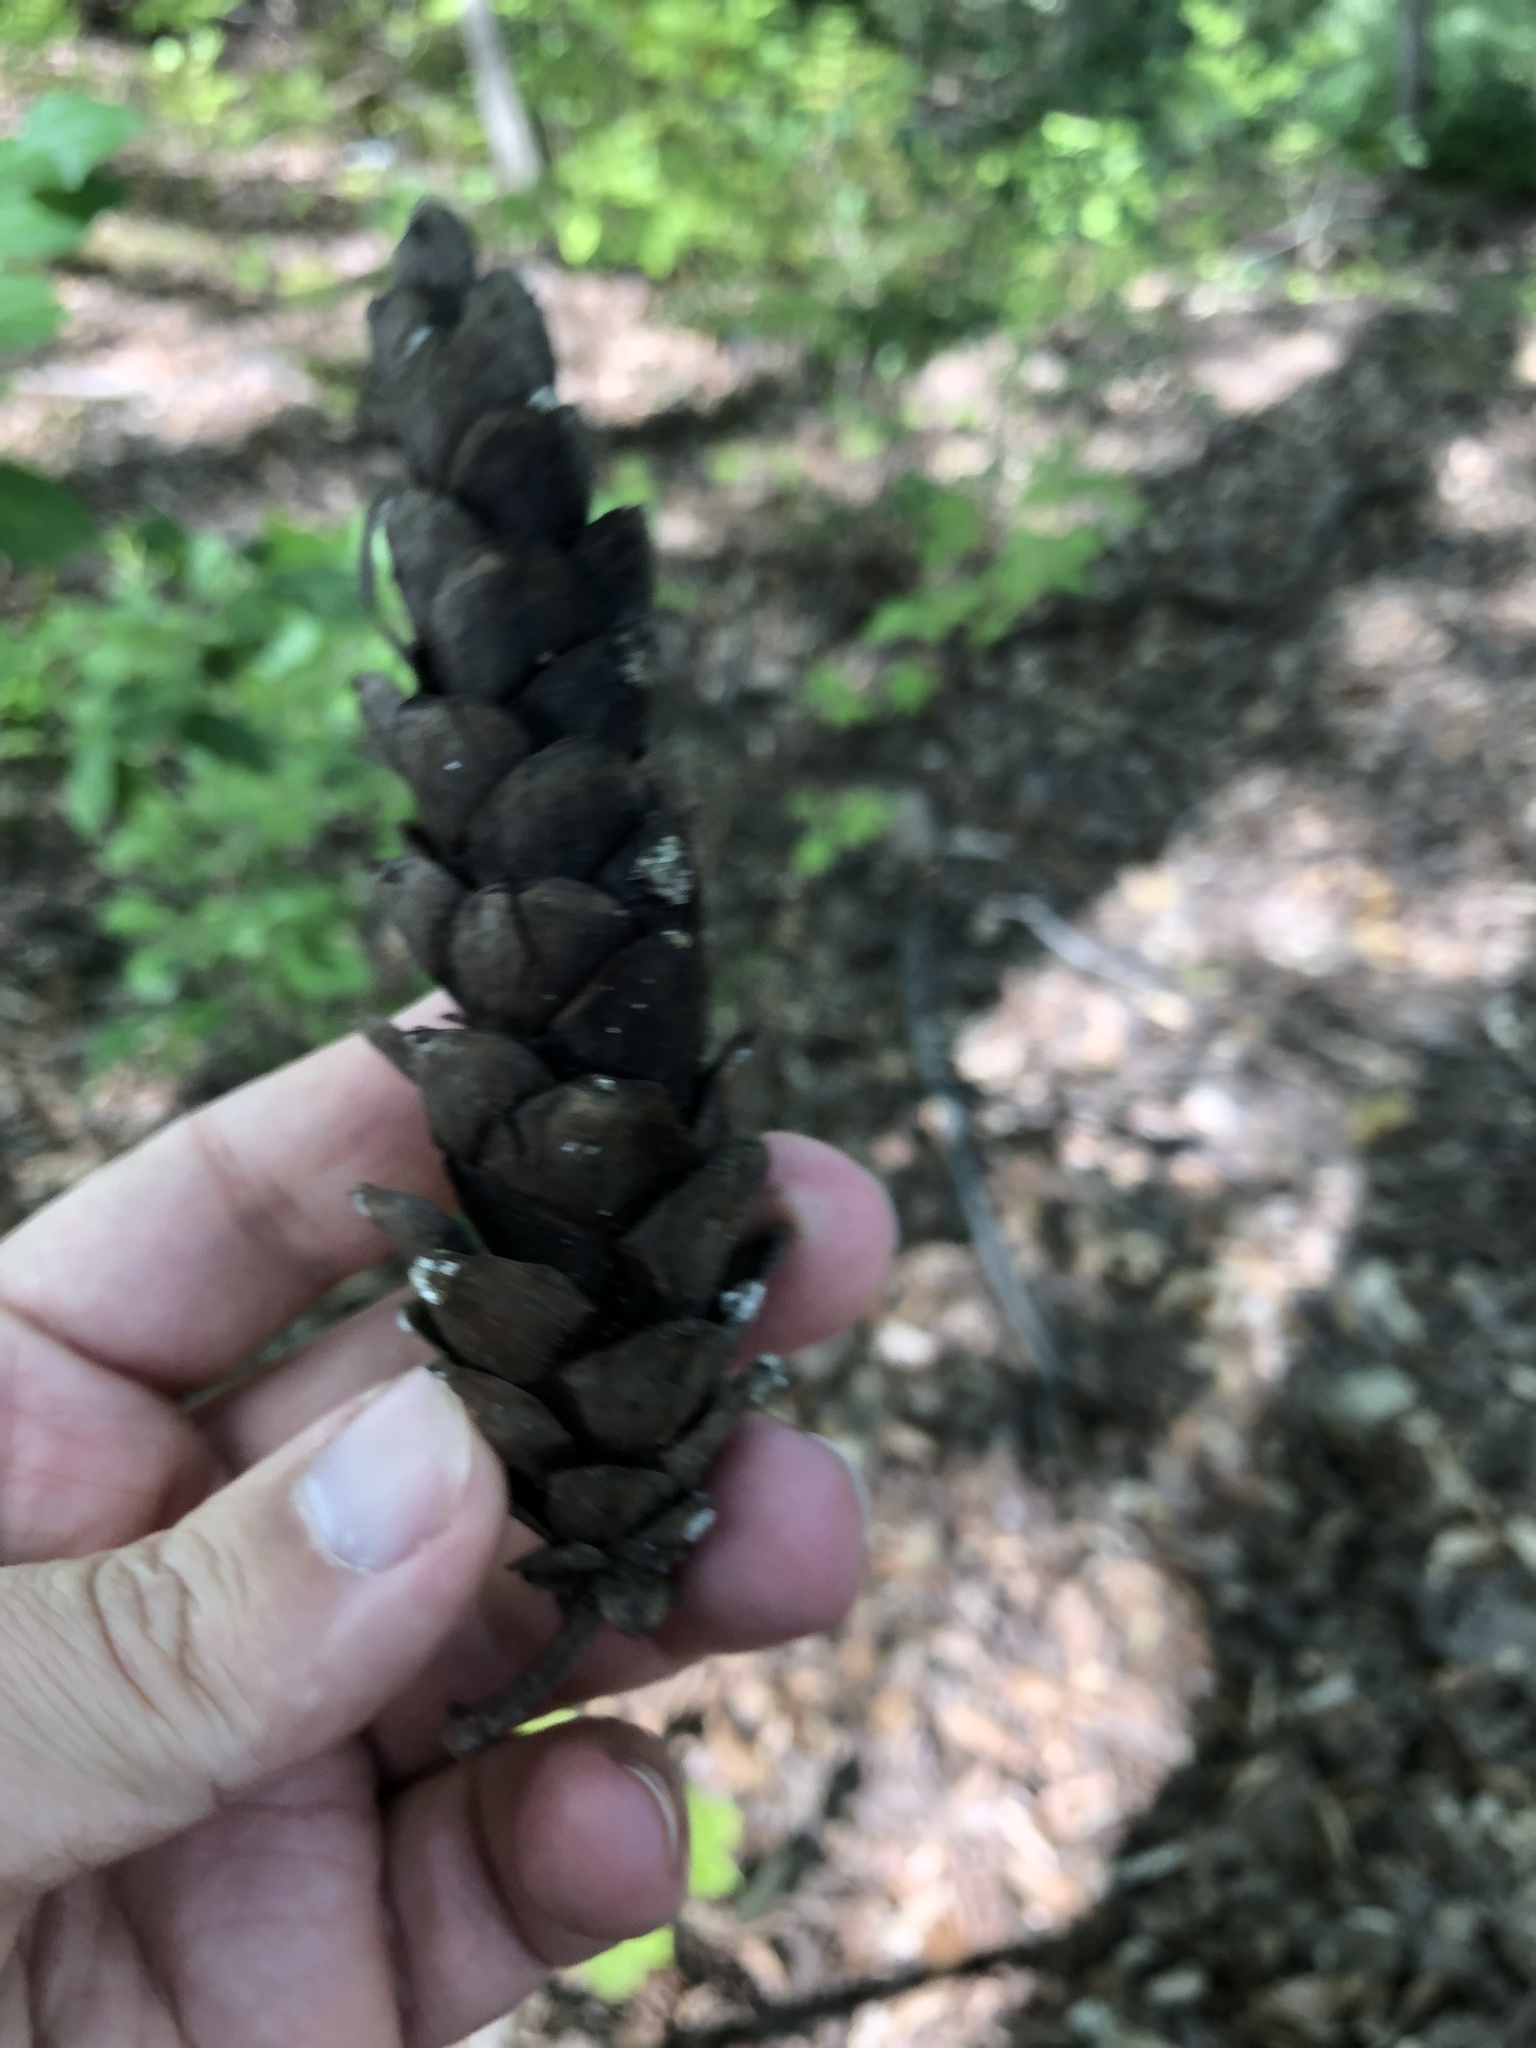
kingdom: Plantae
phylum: Tracheophyta
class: Pinopsida
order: Pinales
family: Pinaceae
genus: Pinus
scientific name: Pinus strobus
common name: Weymouth pine
